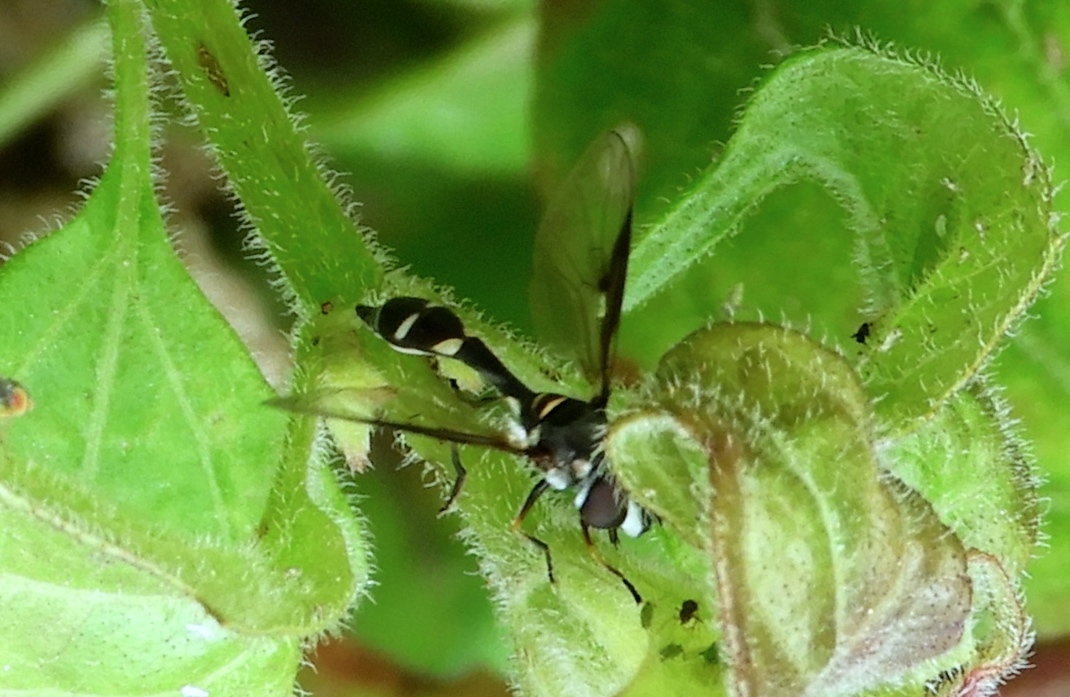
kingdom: Animalia
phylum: Arthropoda
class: Insecta
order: Diptera
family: Syrphidae
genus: Dioprosopa
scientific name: Dioprosopa clavatus
